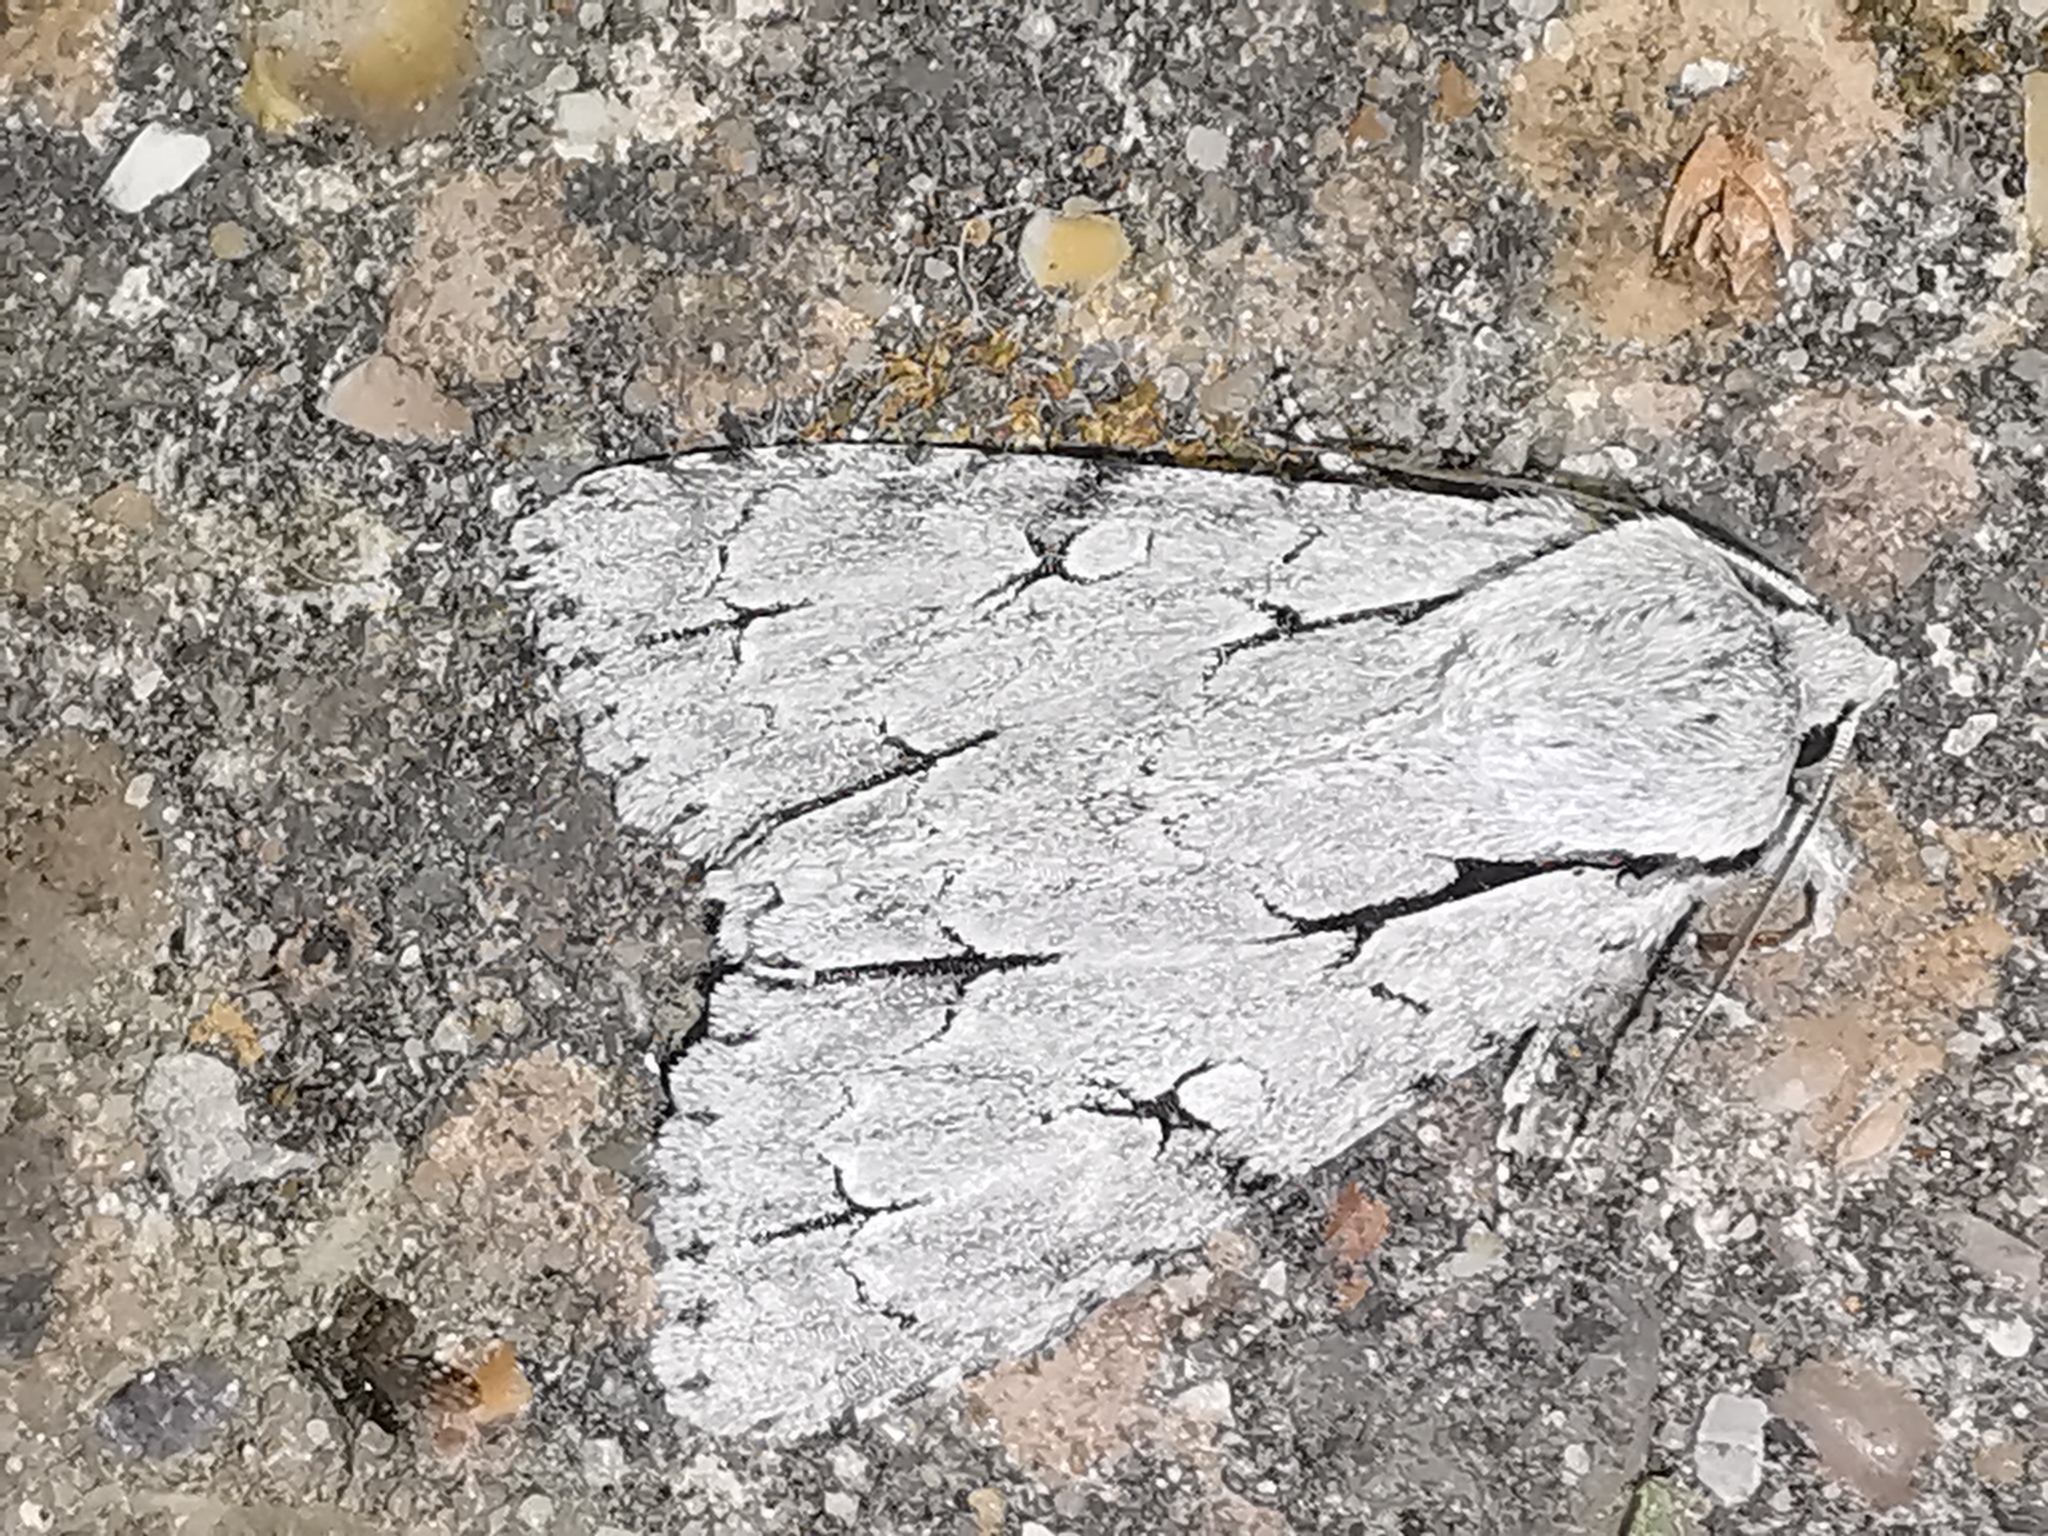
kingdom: Animalia
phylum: Arthropoda
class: Insecta
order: Lepidoptera
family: Noctuidae
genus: Acronicta
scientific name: Acronicta psi
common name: Grey dagger
